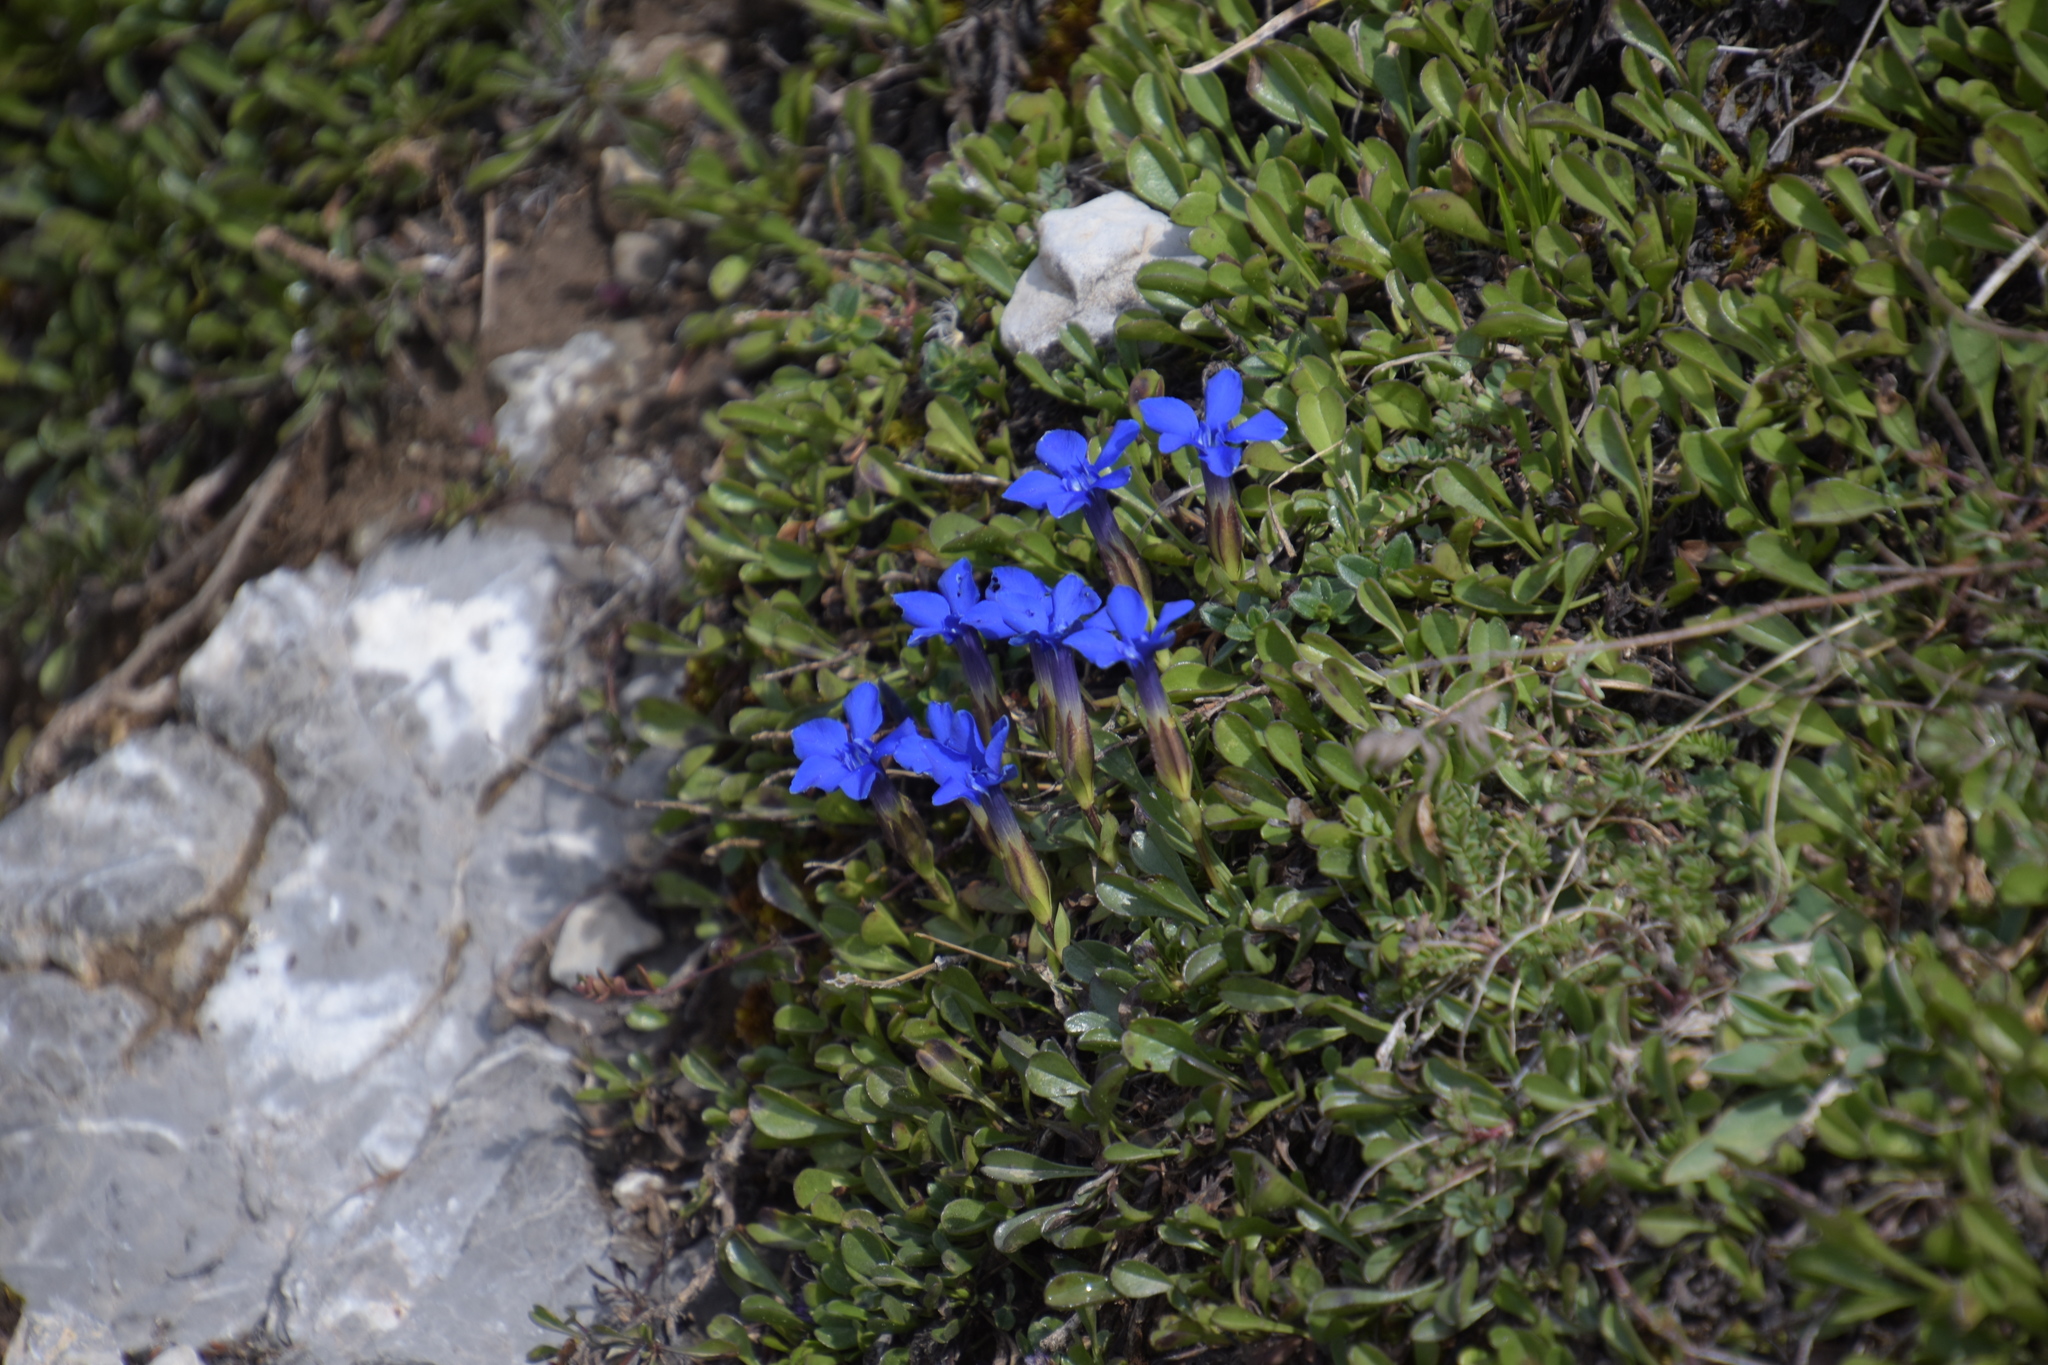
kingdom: Plantae
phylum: Tracheophyta
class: Magnoliopsida
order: Gentianales
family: Gentianaceae
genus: Gentiana
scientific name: Gentiana verna
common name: Spring gentian
